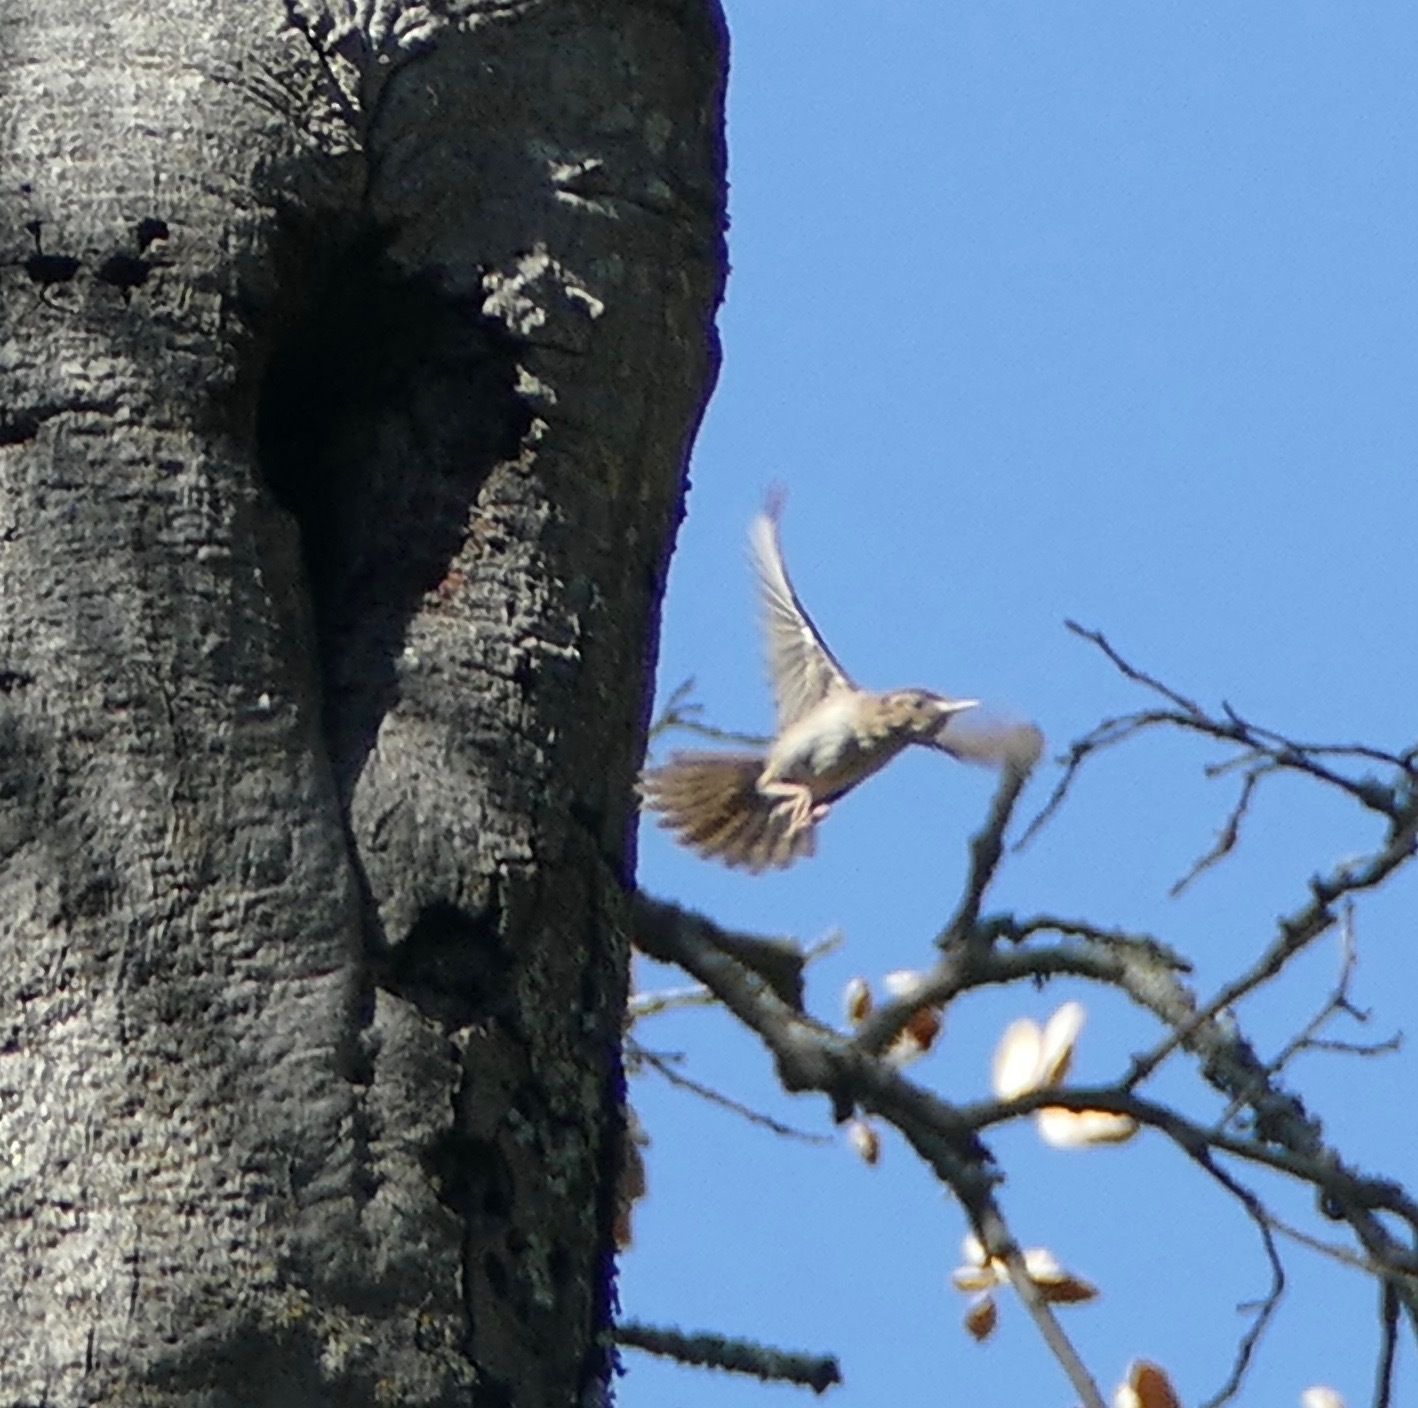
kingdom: Animalia
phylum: Chordata
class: Aves
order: Passeriformes
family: Troglodytidae
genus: Troglodytes
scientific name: Troglodytes aedon
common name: House wren
